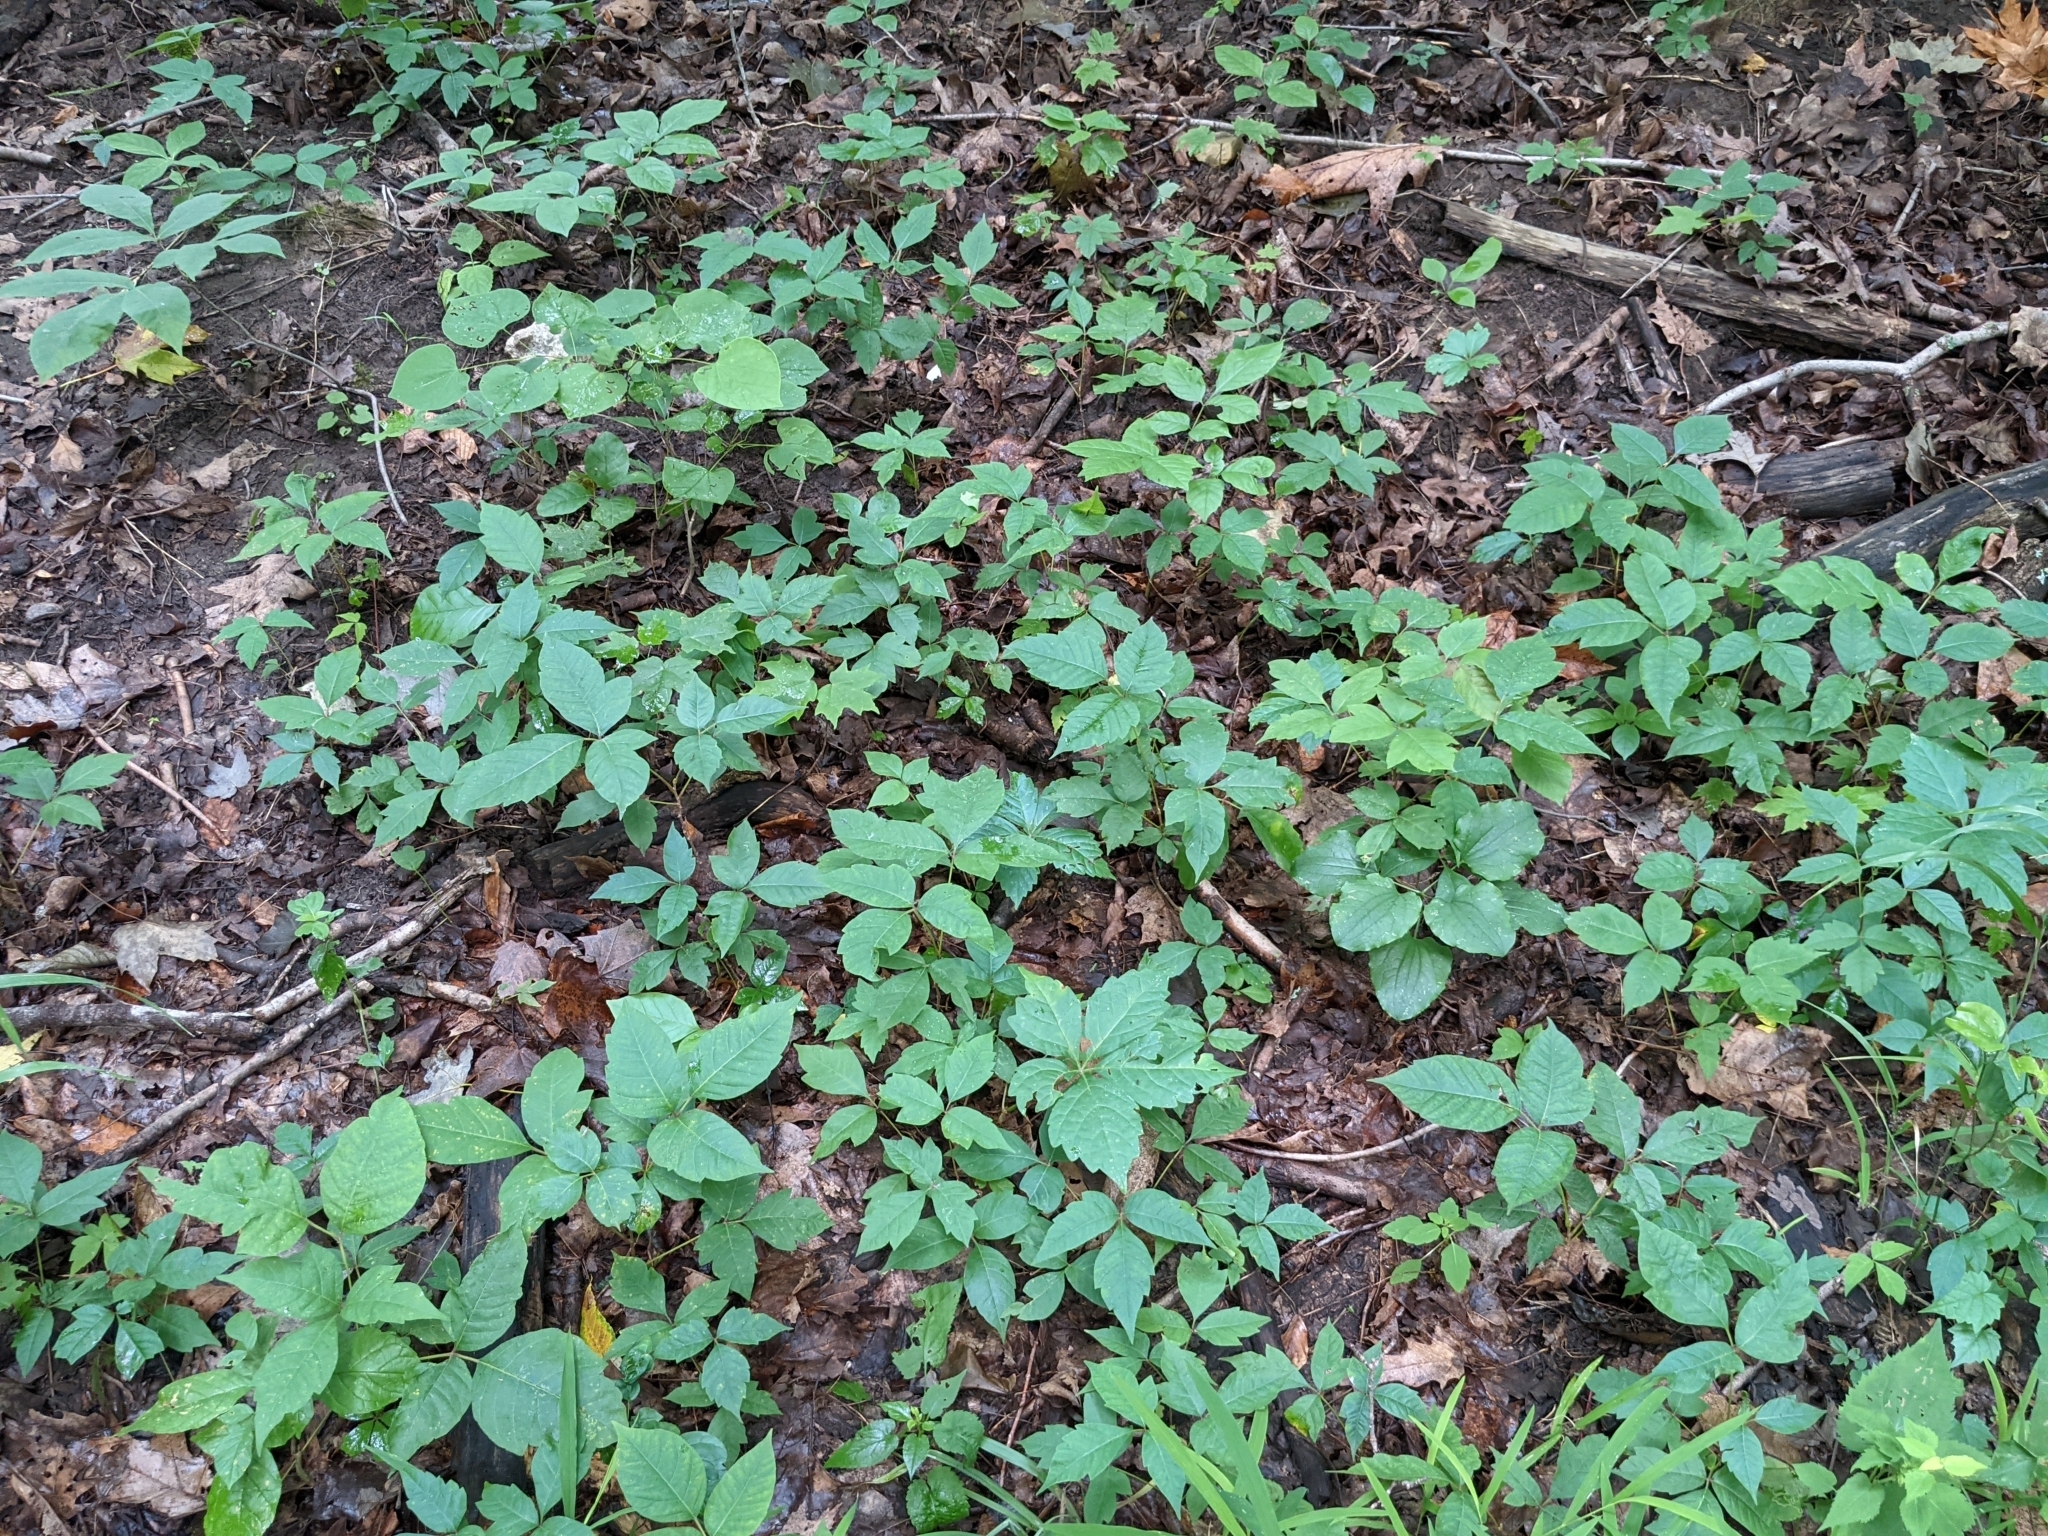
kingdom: Plantae
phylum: Tracheophyta
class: Magnoliopsida
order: Sapindales
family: Anacardiaceae
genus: Toxicodendron
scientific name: Toxicodendron radicans
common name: Poison ivy
